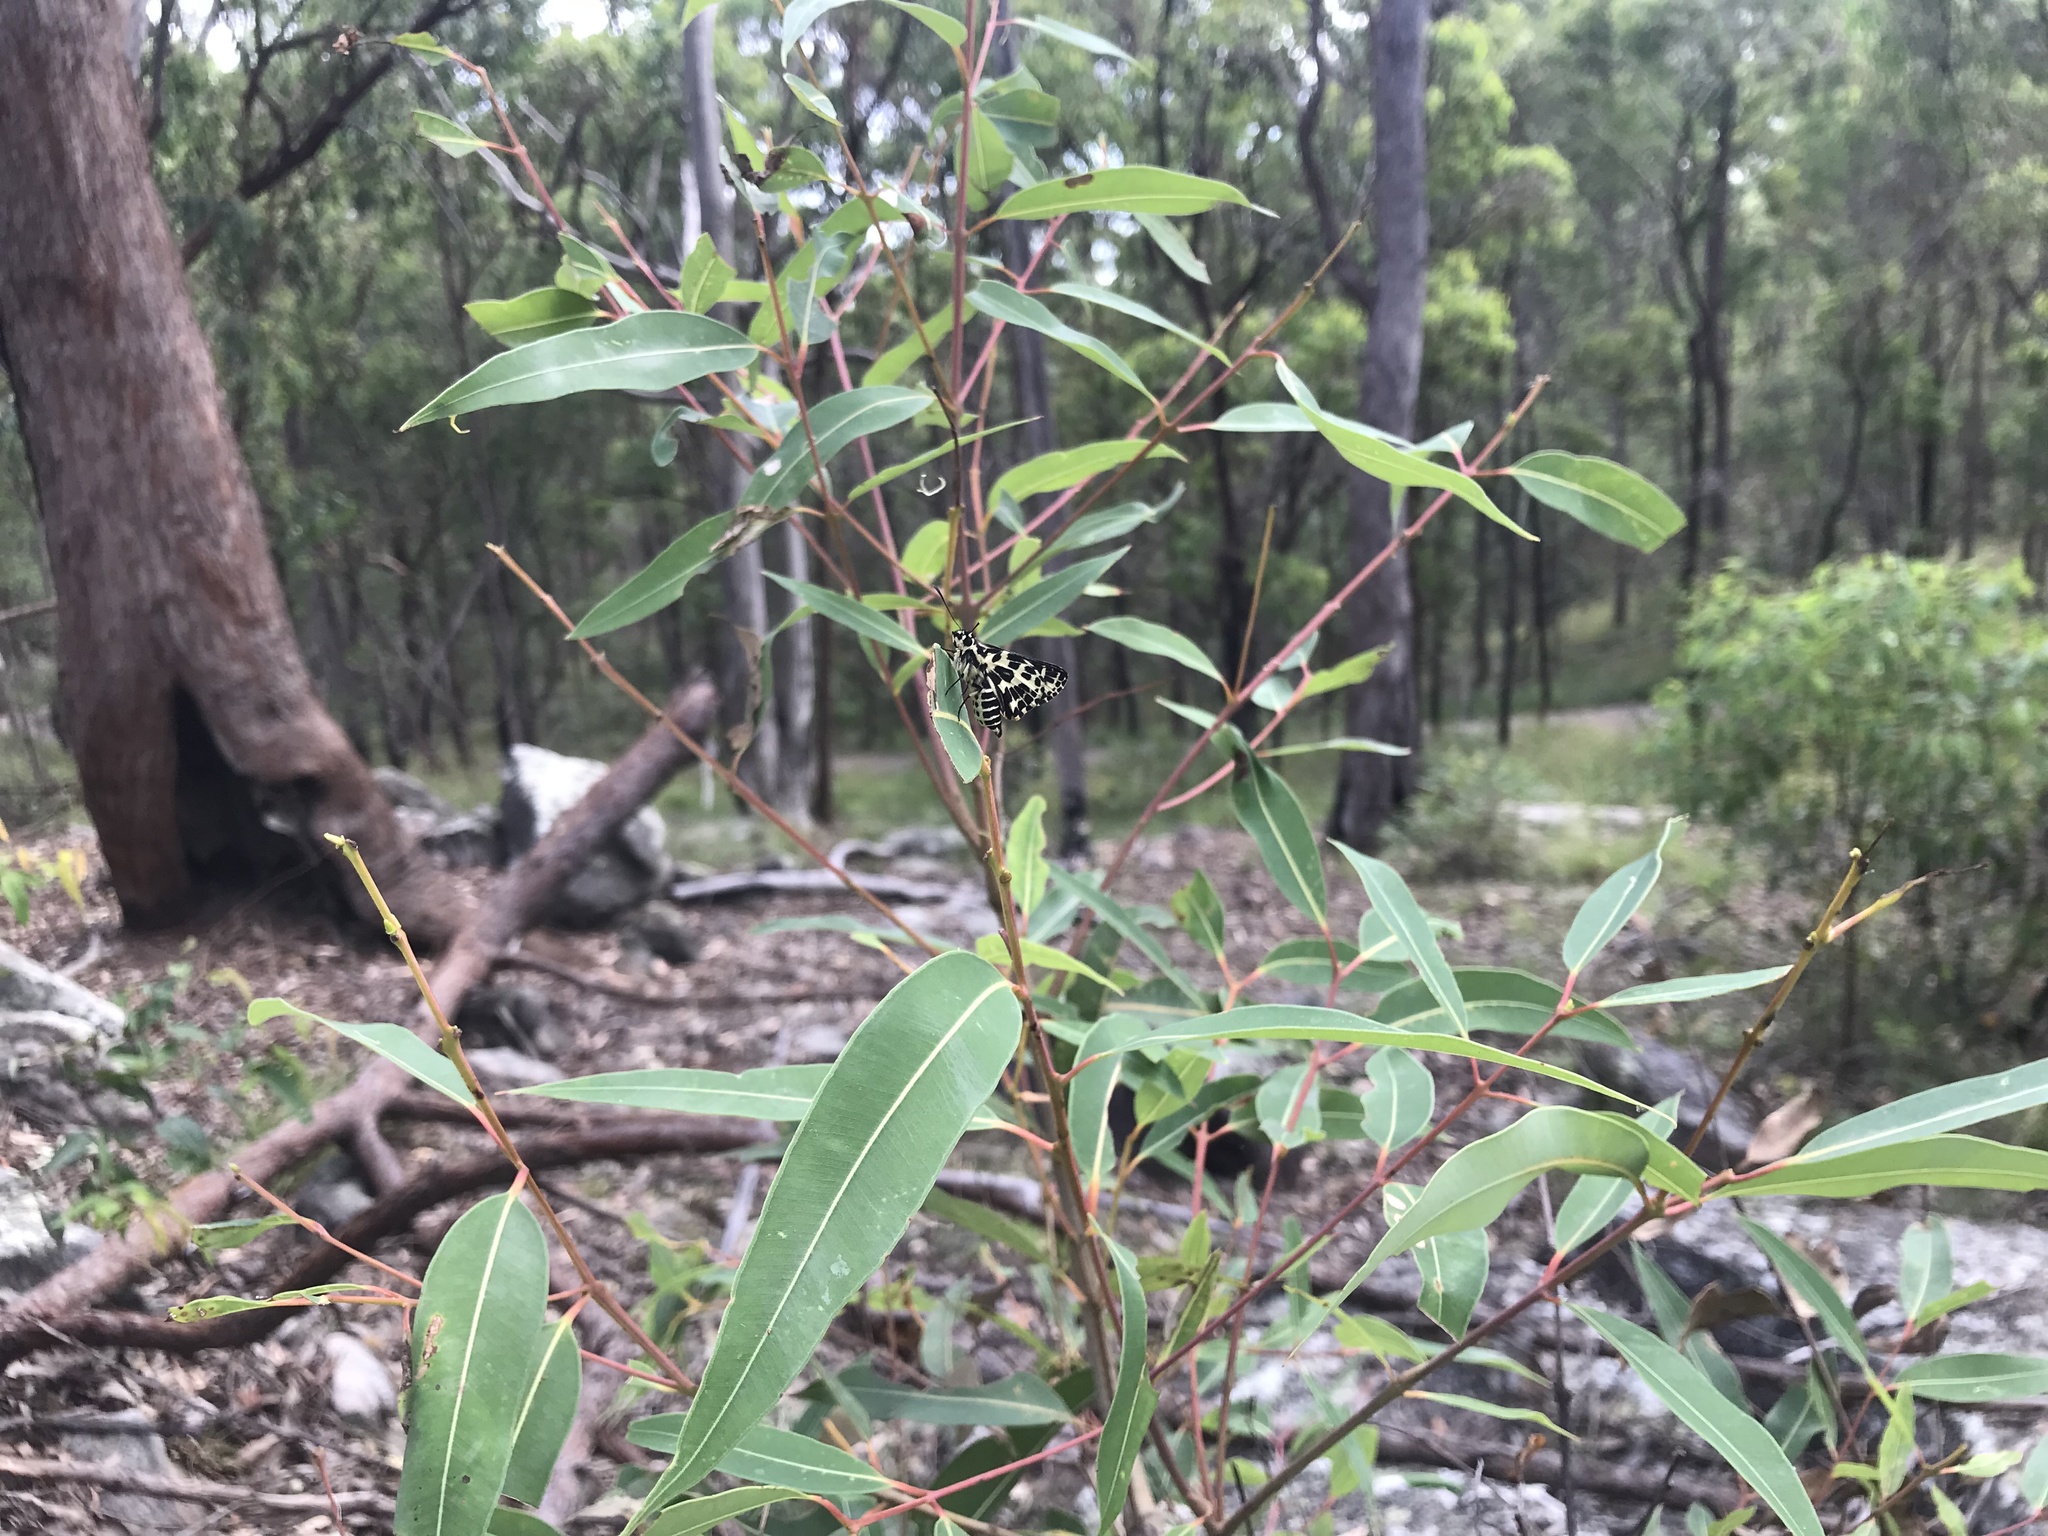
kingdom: Animalia
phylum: Arthropoda
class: Insecta
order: Lepidoptera
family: Hesperiidae
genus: Hesperilla
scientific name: Hesperilla ornata
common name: Spotted sedge-skipper
